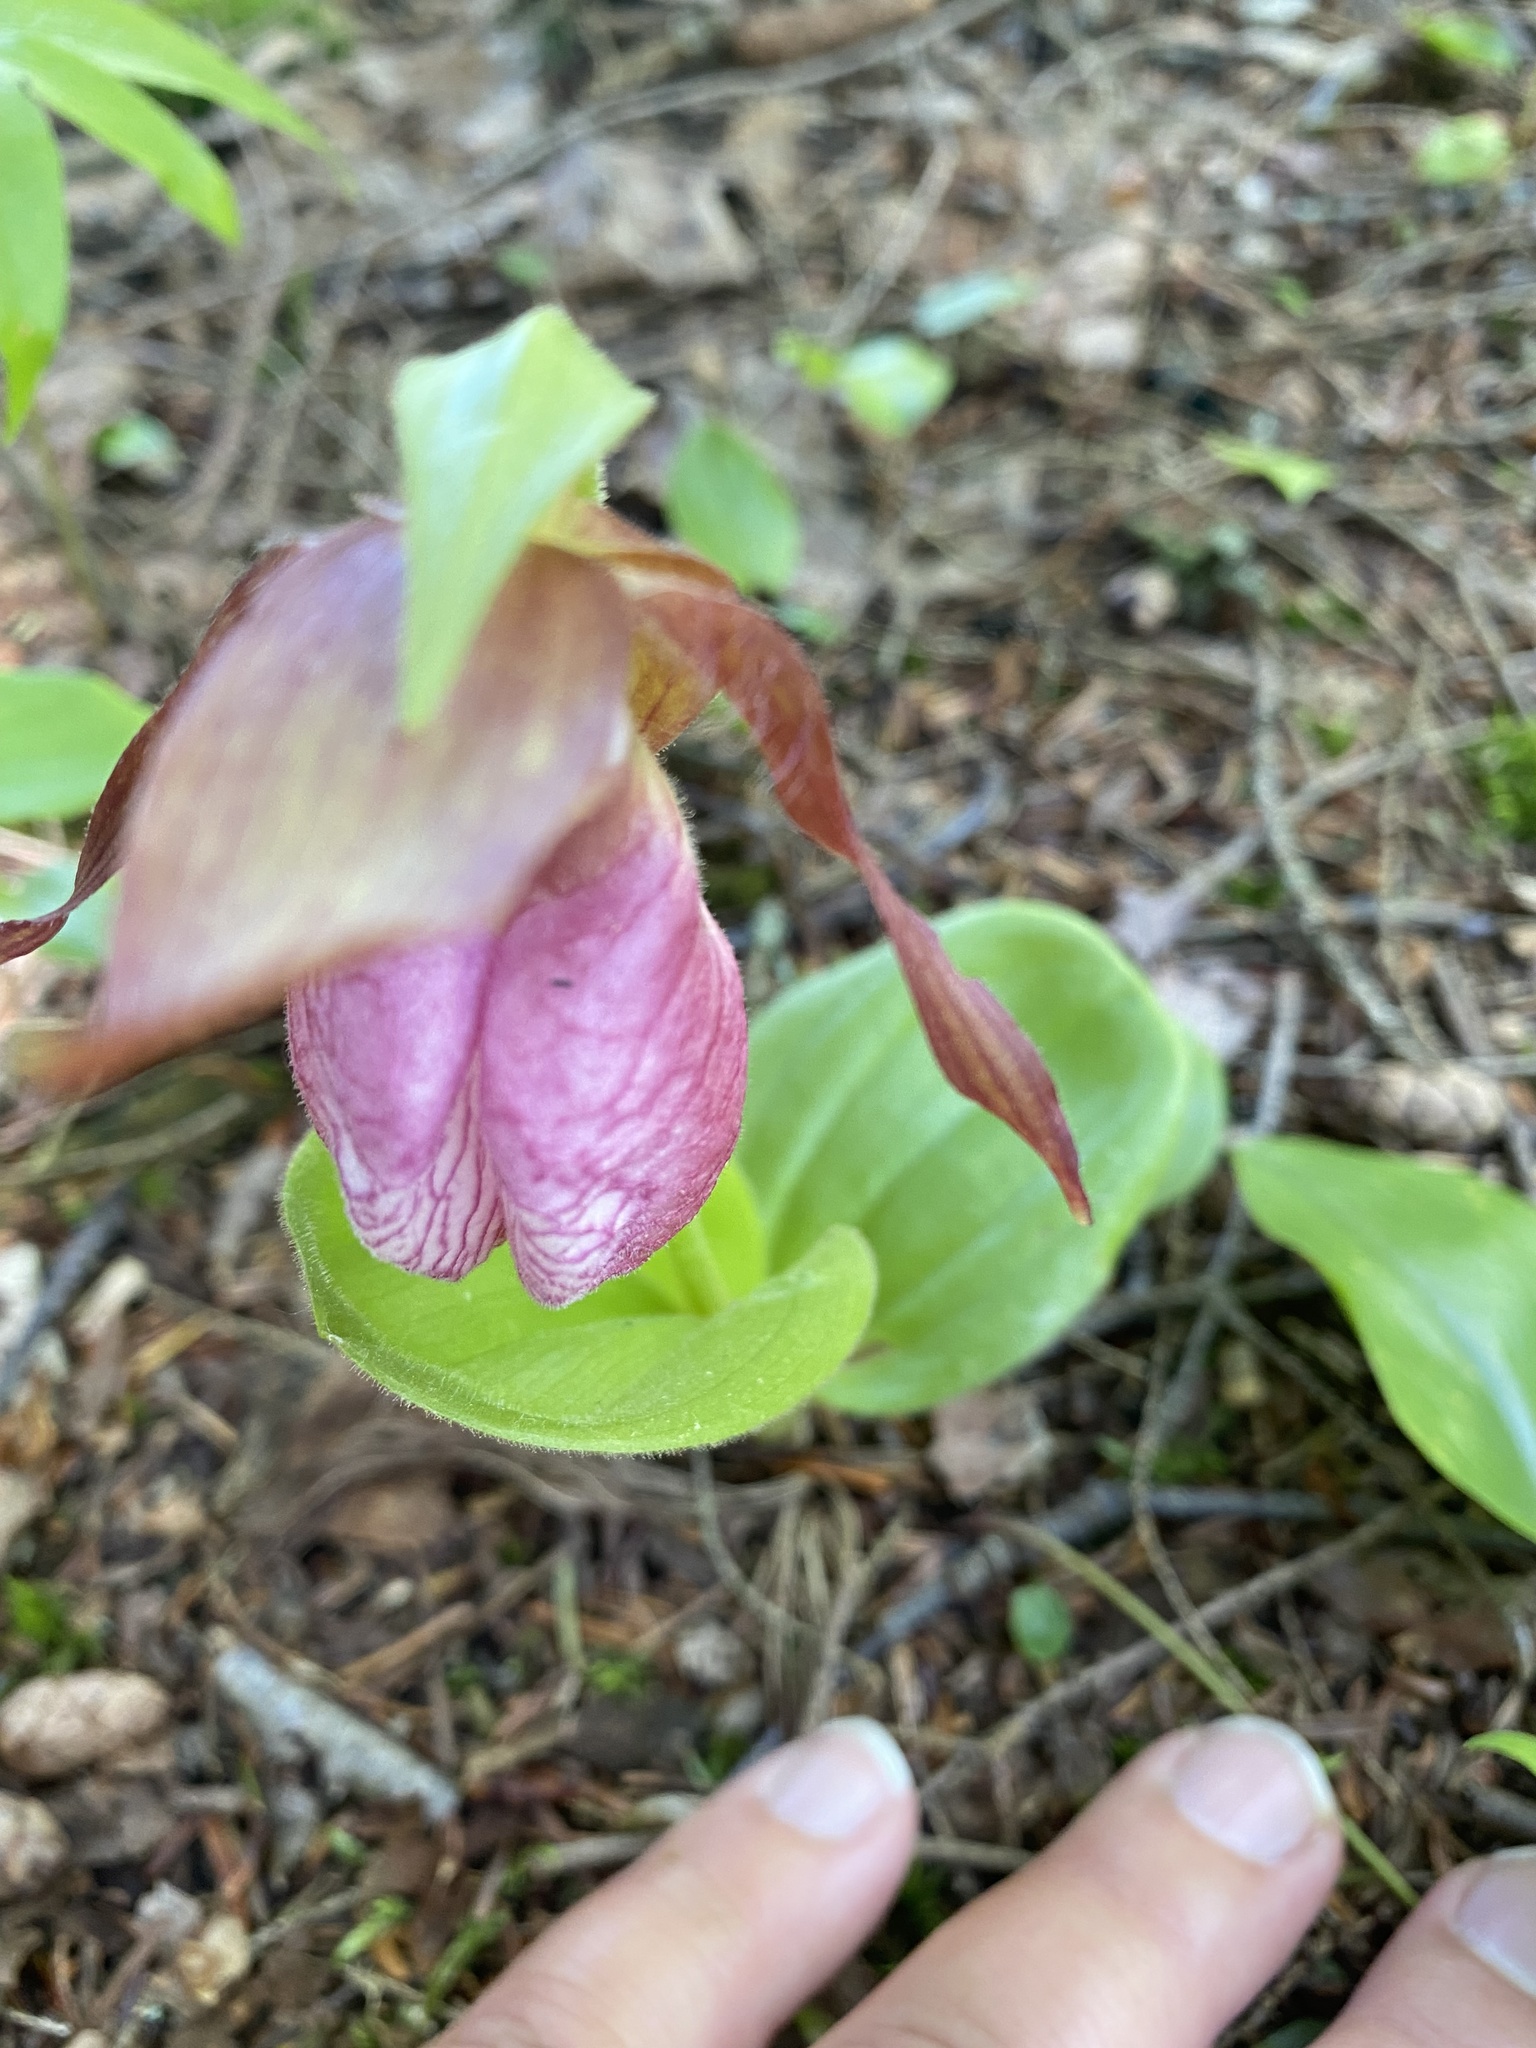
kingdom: Plantae
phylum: Tracheophyta
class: Liliopsida
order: Asparagales
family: Orchidaceae
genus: Cypripedium
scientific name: Cypripedium acaule
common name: Pink lady's-slipper
